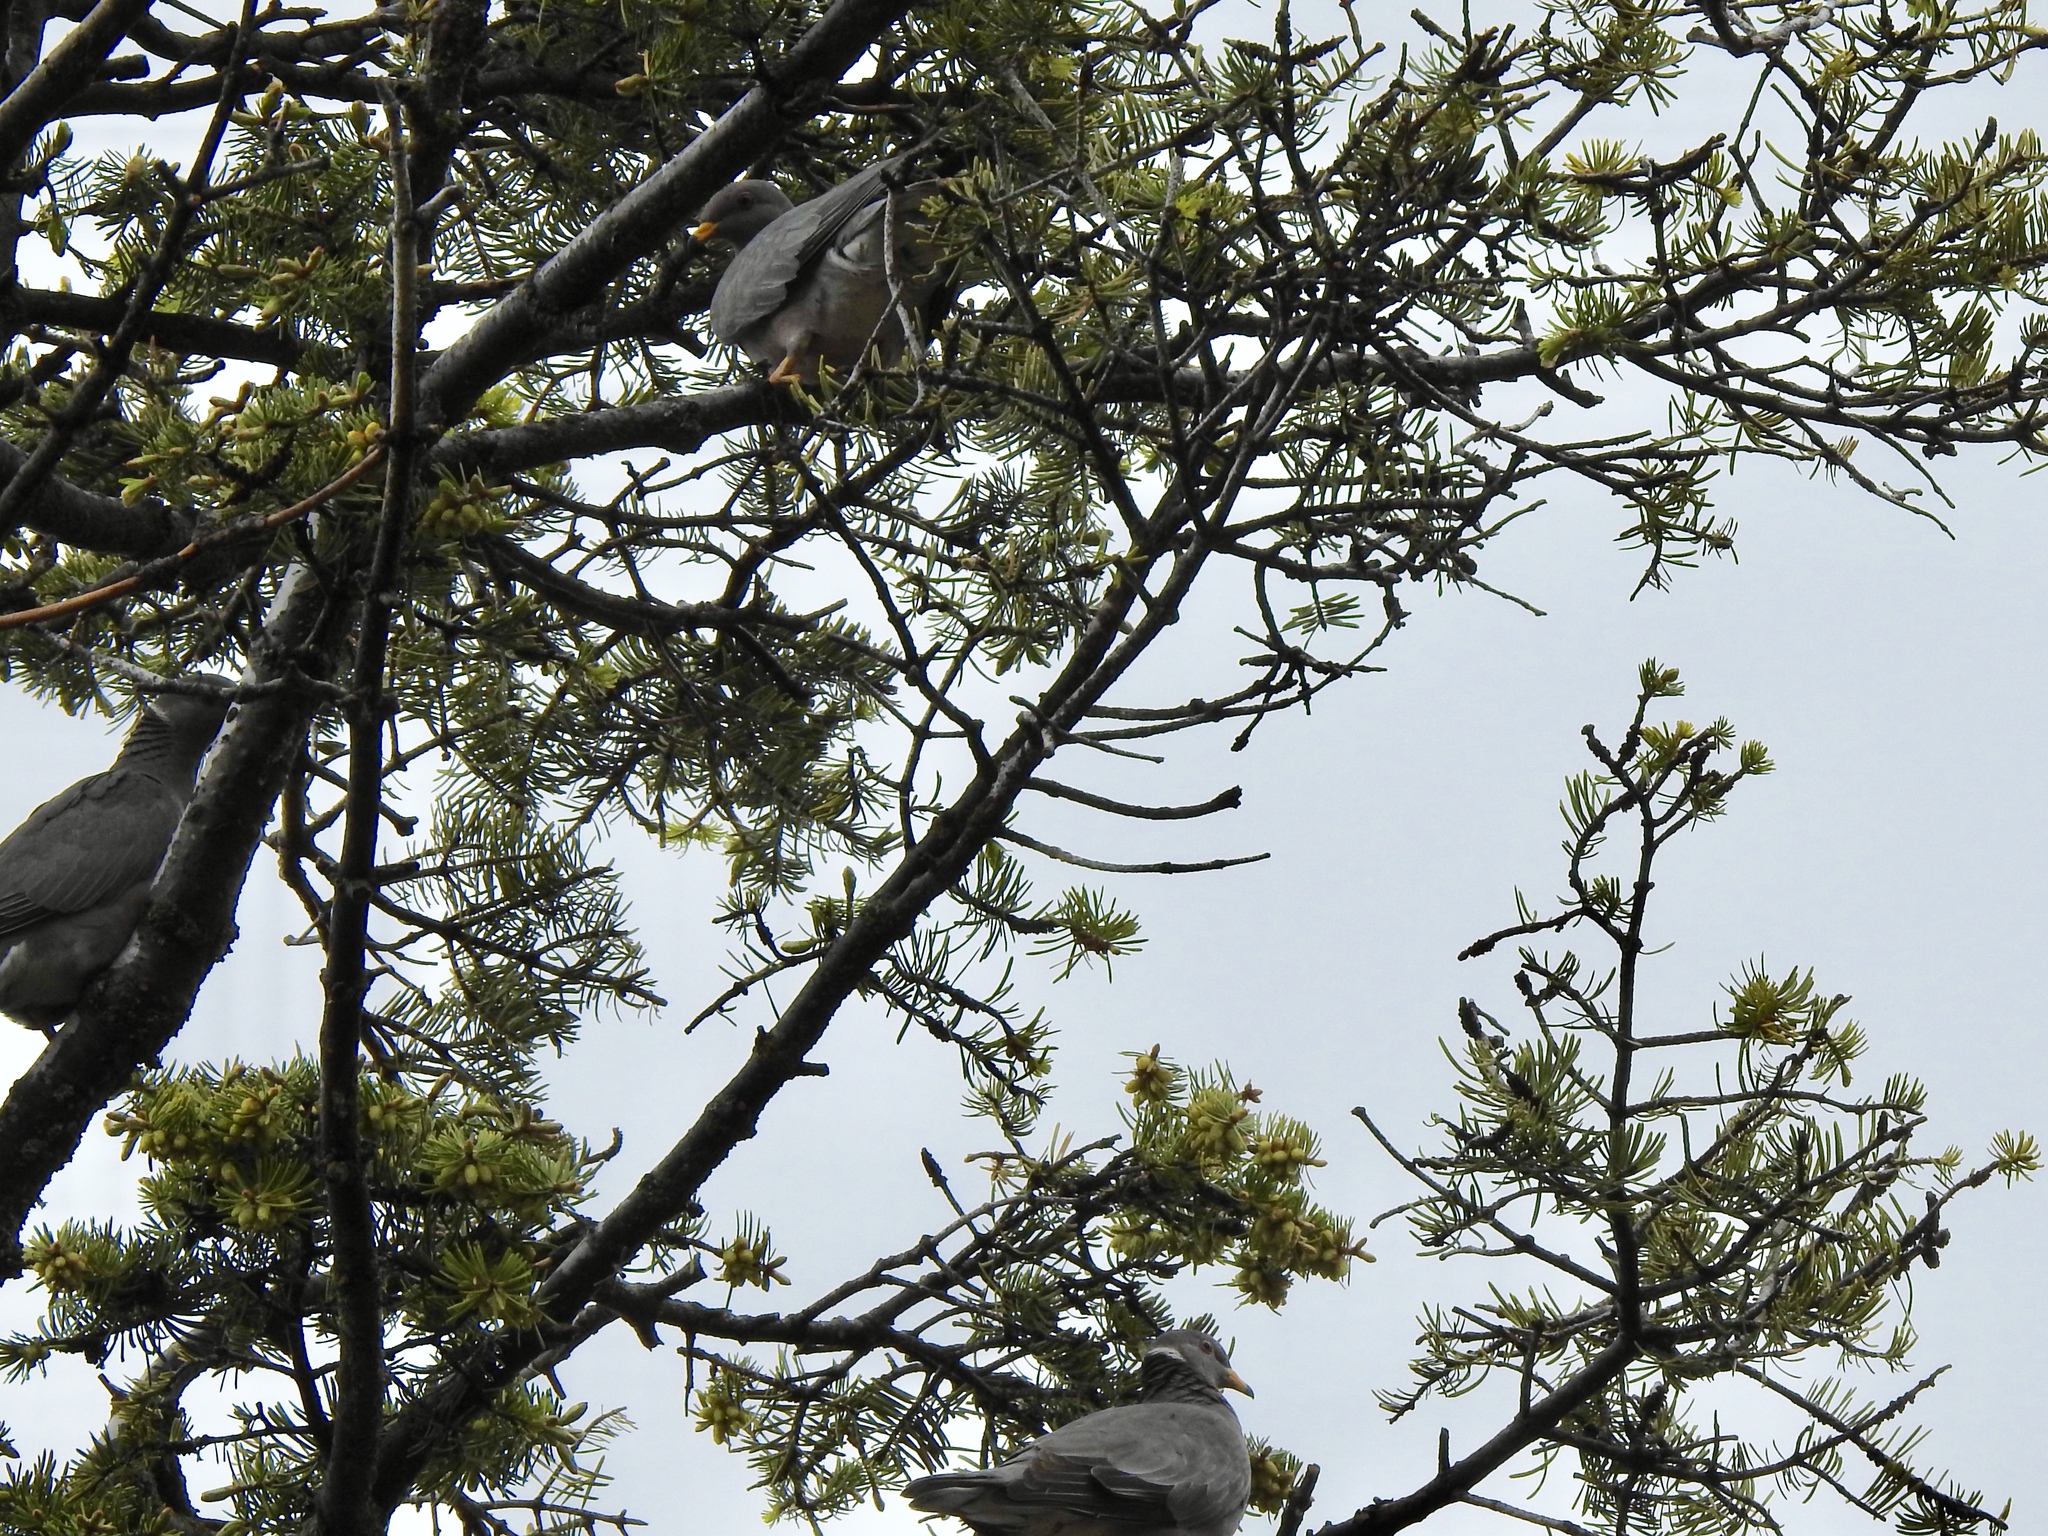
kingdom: Animalia
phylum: Chordata
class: Aves
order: Columbiformes
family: Columbidae
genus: Patagioenas
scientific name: Patagioenas fasciata
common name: Band-tailed pigeon
